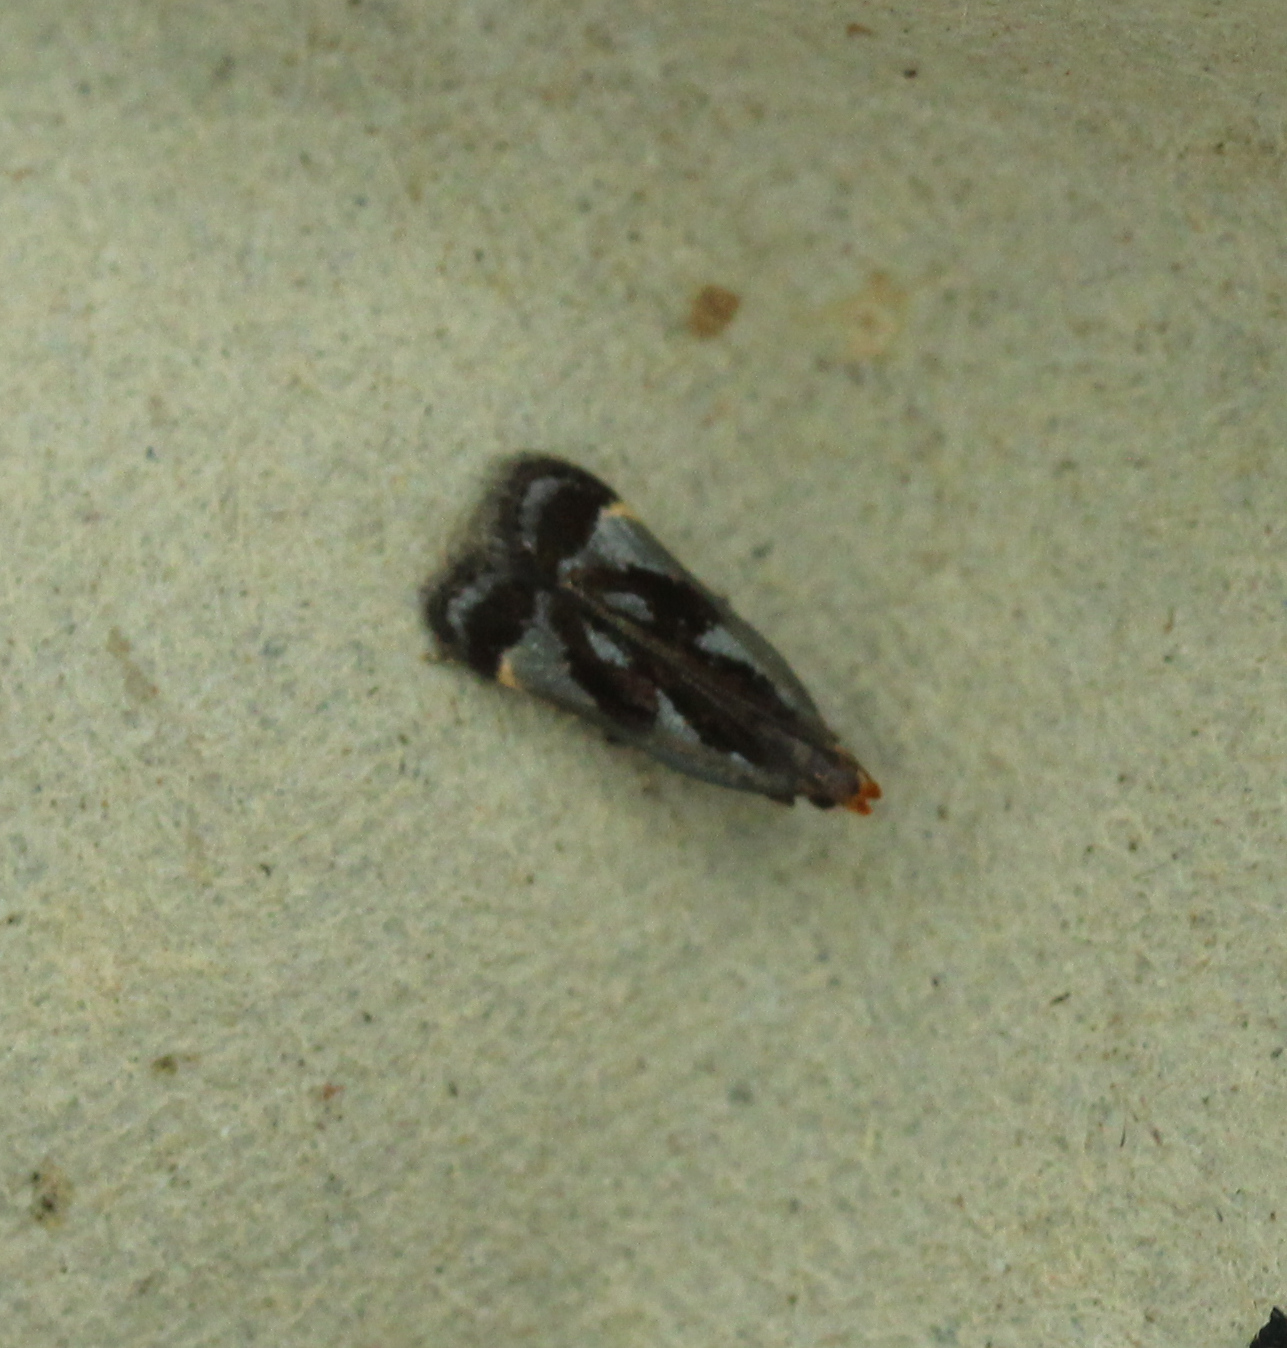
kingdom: Animalia
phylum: Arthropoda
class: Insecta
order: Lepidoptera
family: Gelechiidae
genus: Dichomeris
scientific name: Dichomeris ochripalpella
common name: Shining dichomeris moth
